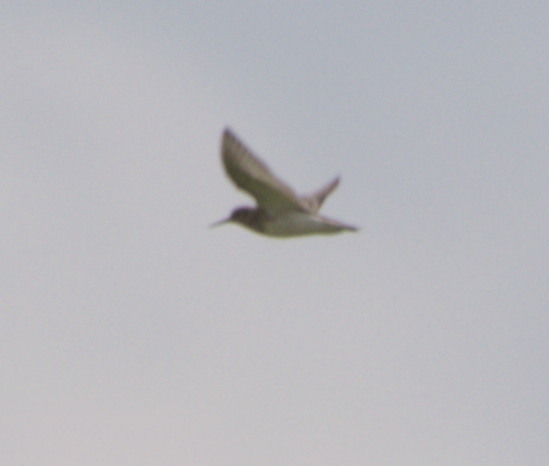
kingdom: Animalia
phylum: Chordata
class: Aves
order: Charadriiformes
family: Scolopacidae
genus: Calidris
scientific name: Calidris bairdii
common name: Baird's sandpiper
